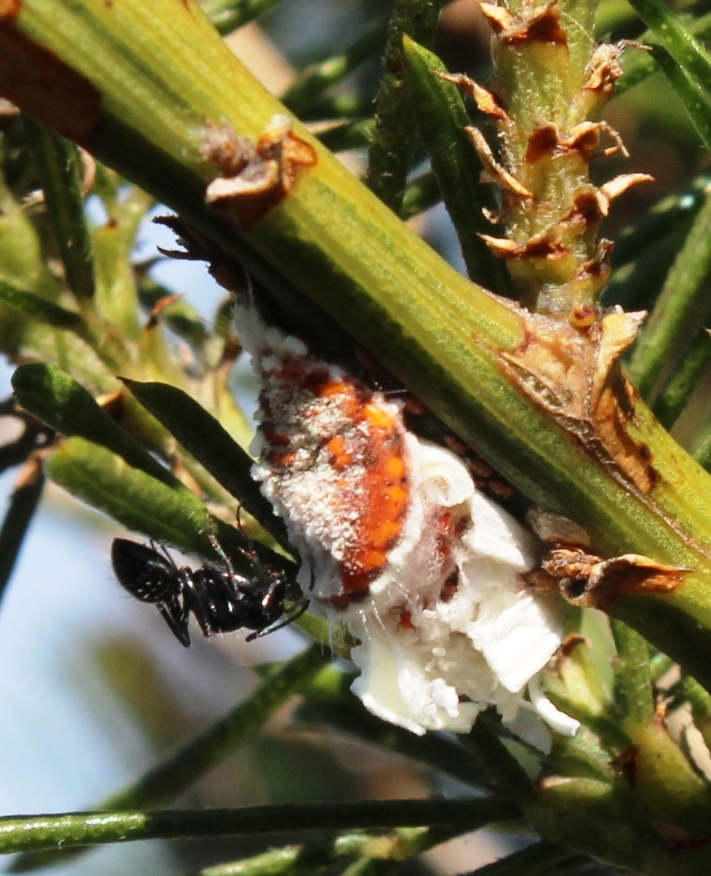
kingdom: Animalia
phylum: Arthropoda
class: Insecta
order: Hymenoptera
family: Formicidae
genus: Camponotus
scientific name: Camponotus niveosetosus
